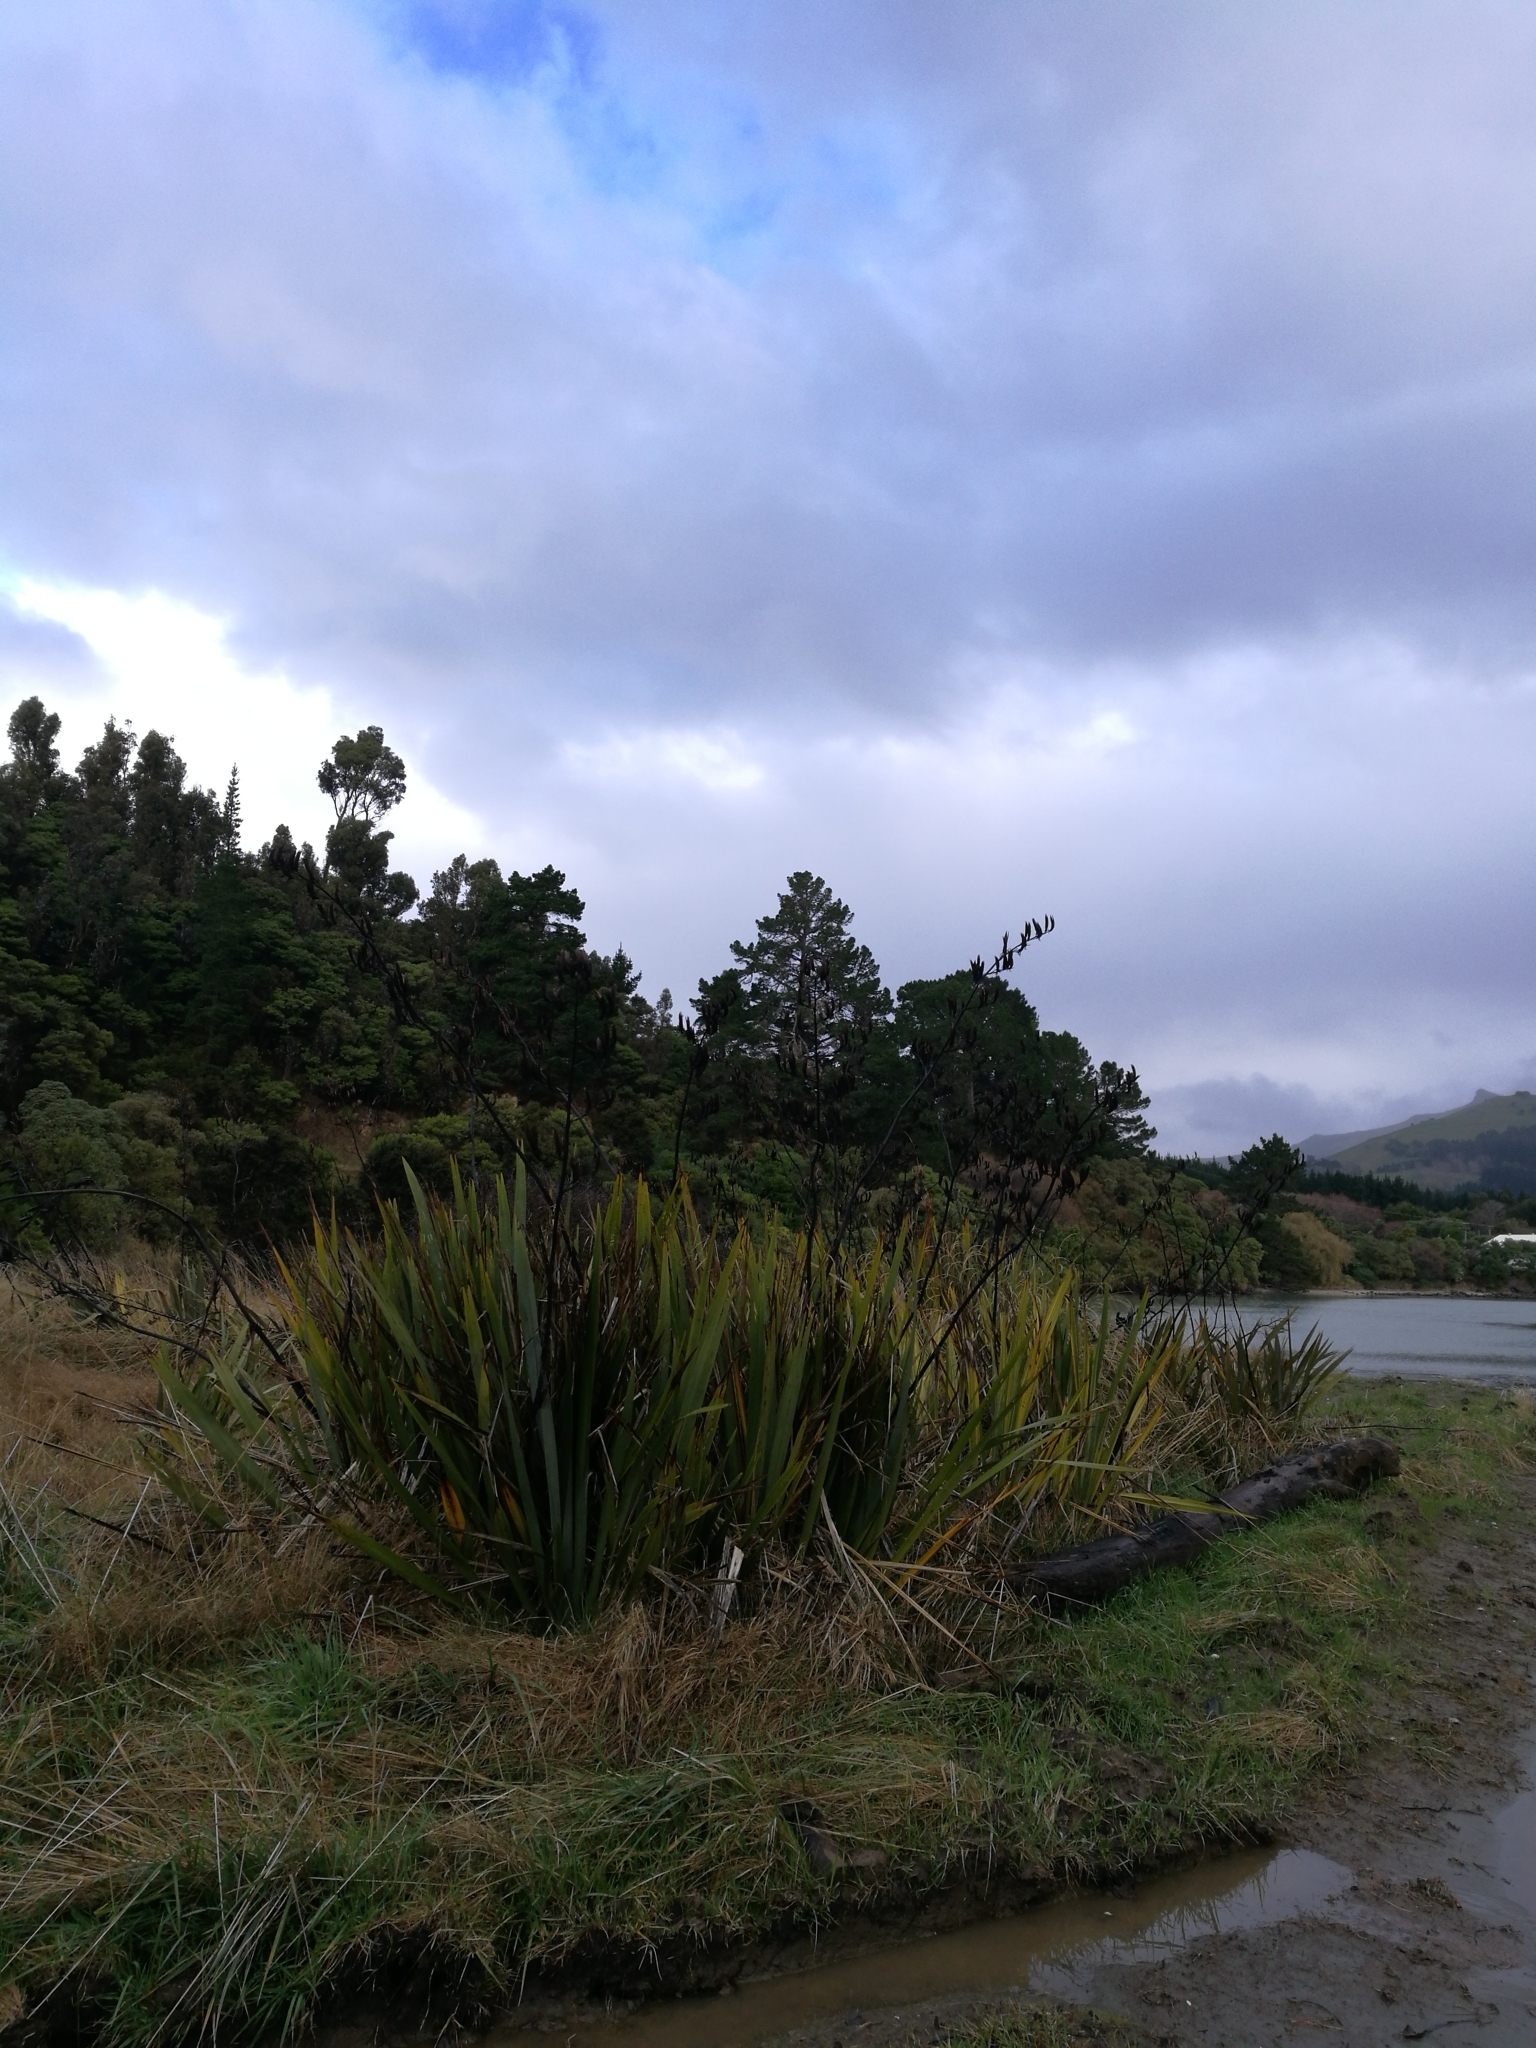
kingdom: Plantae
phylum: Tracheophyta
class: Liliopsida
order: Asparagales
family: Asphodelaceae
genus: Phormium
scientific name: Phormium tenax
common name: New zealand flax
